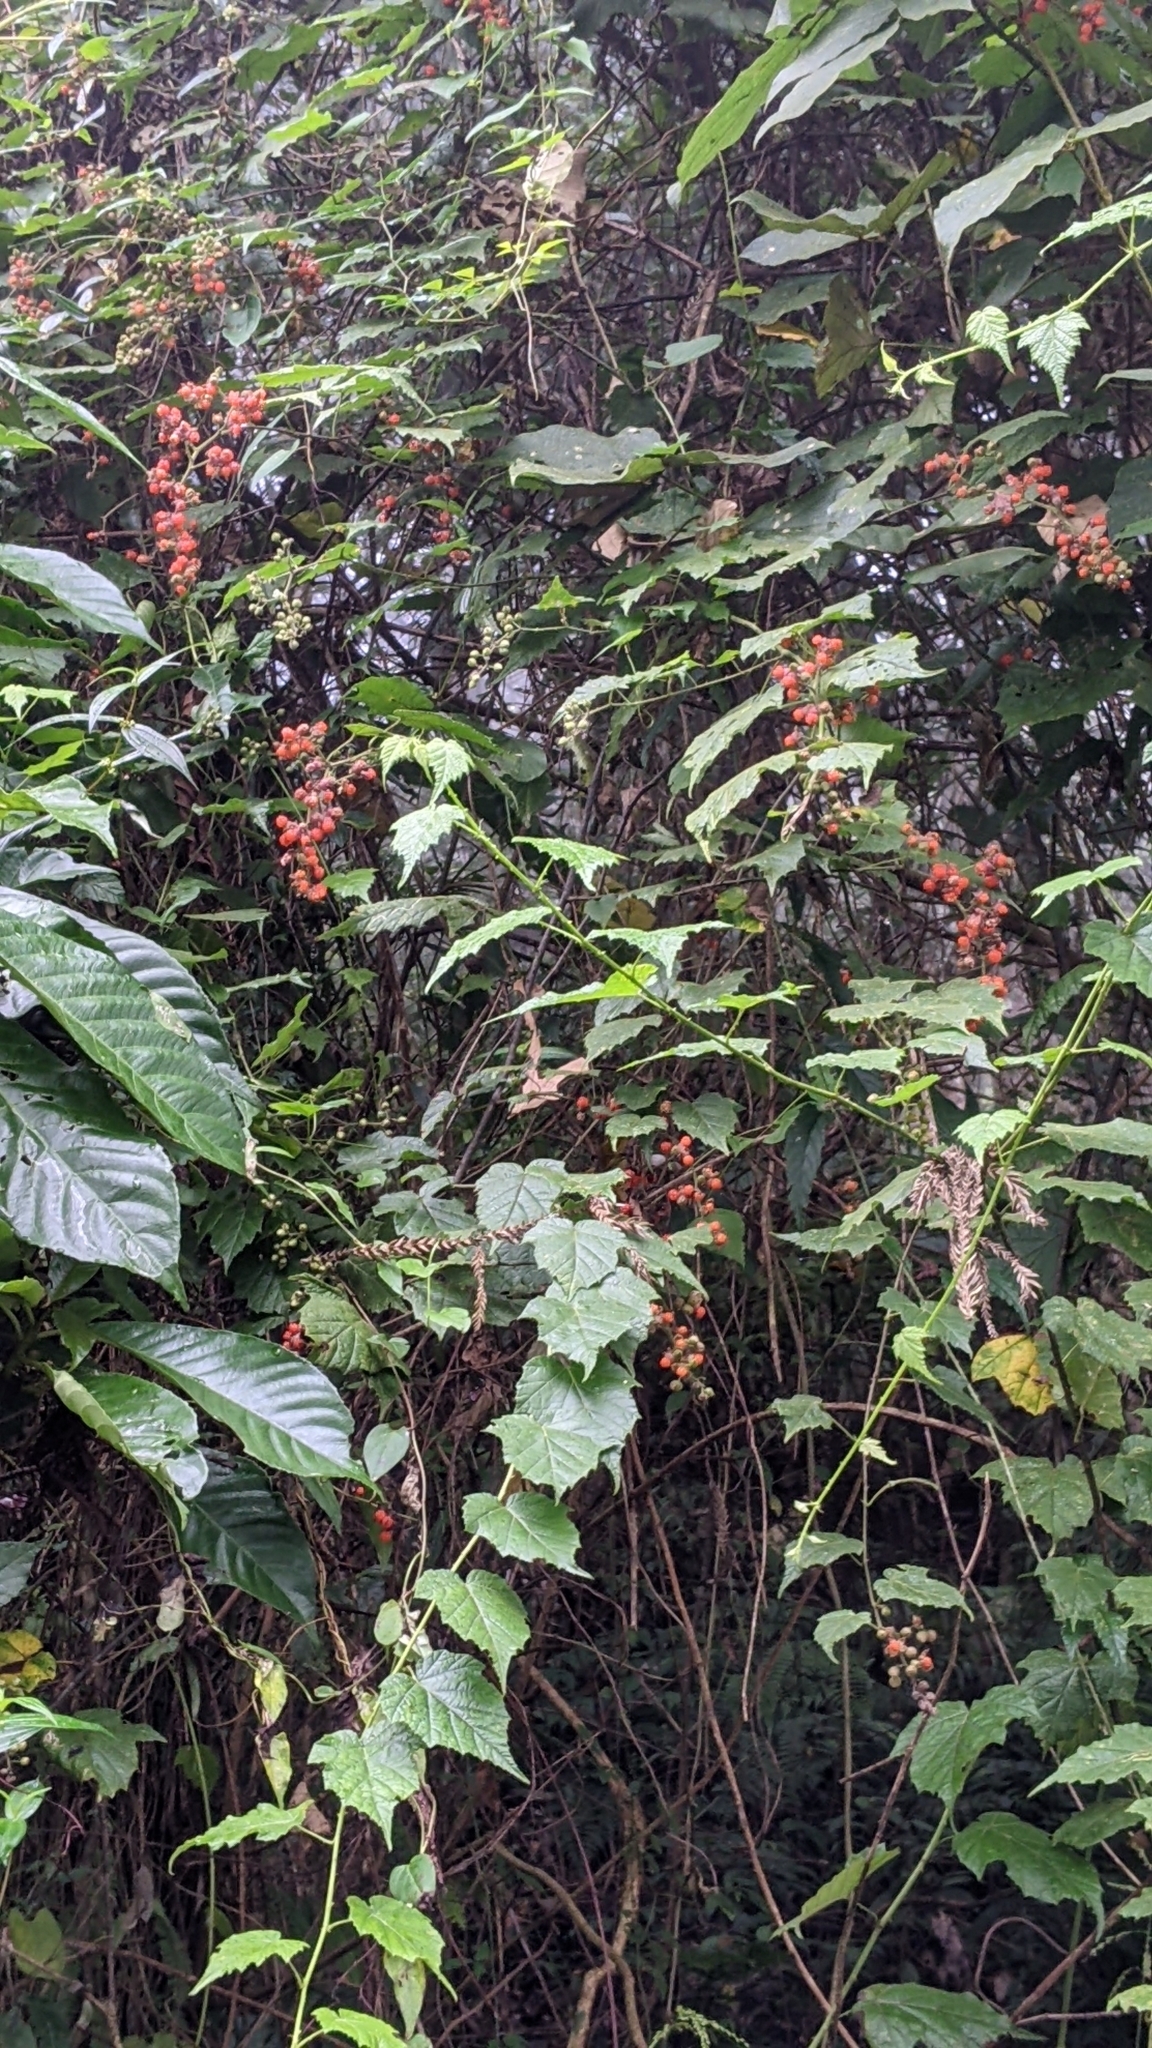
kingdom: Plantae
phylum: Tracheophyta
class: Magnoliopsida
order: Rosales
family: Rosaceae
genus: Rubus
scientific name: Rubus lambertianus
